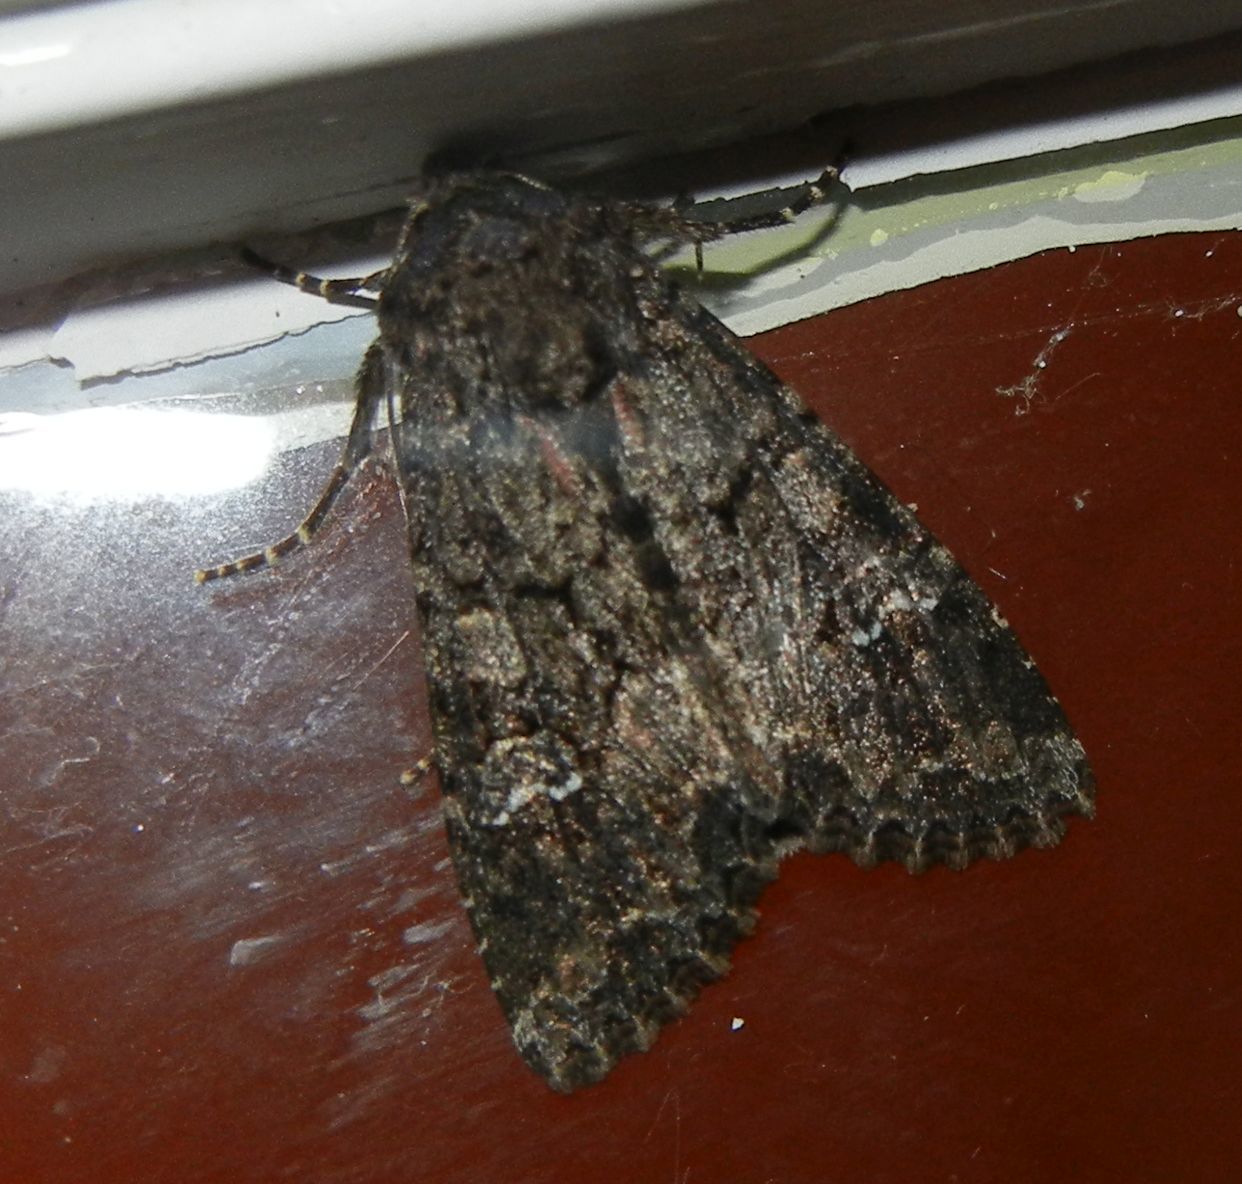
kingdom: Animalia
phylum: Arthropoda
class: Insecta
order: Lepidoptera
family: Noctuidae
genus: Mamestra
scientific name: Mamestra brassicae
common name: Cabbage moth
